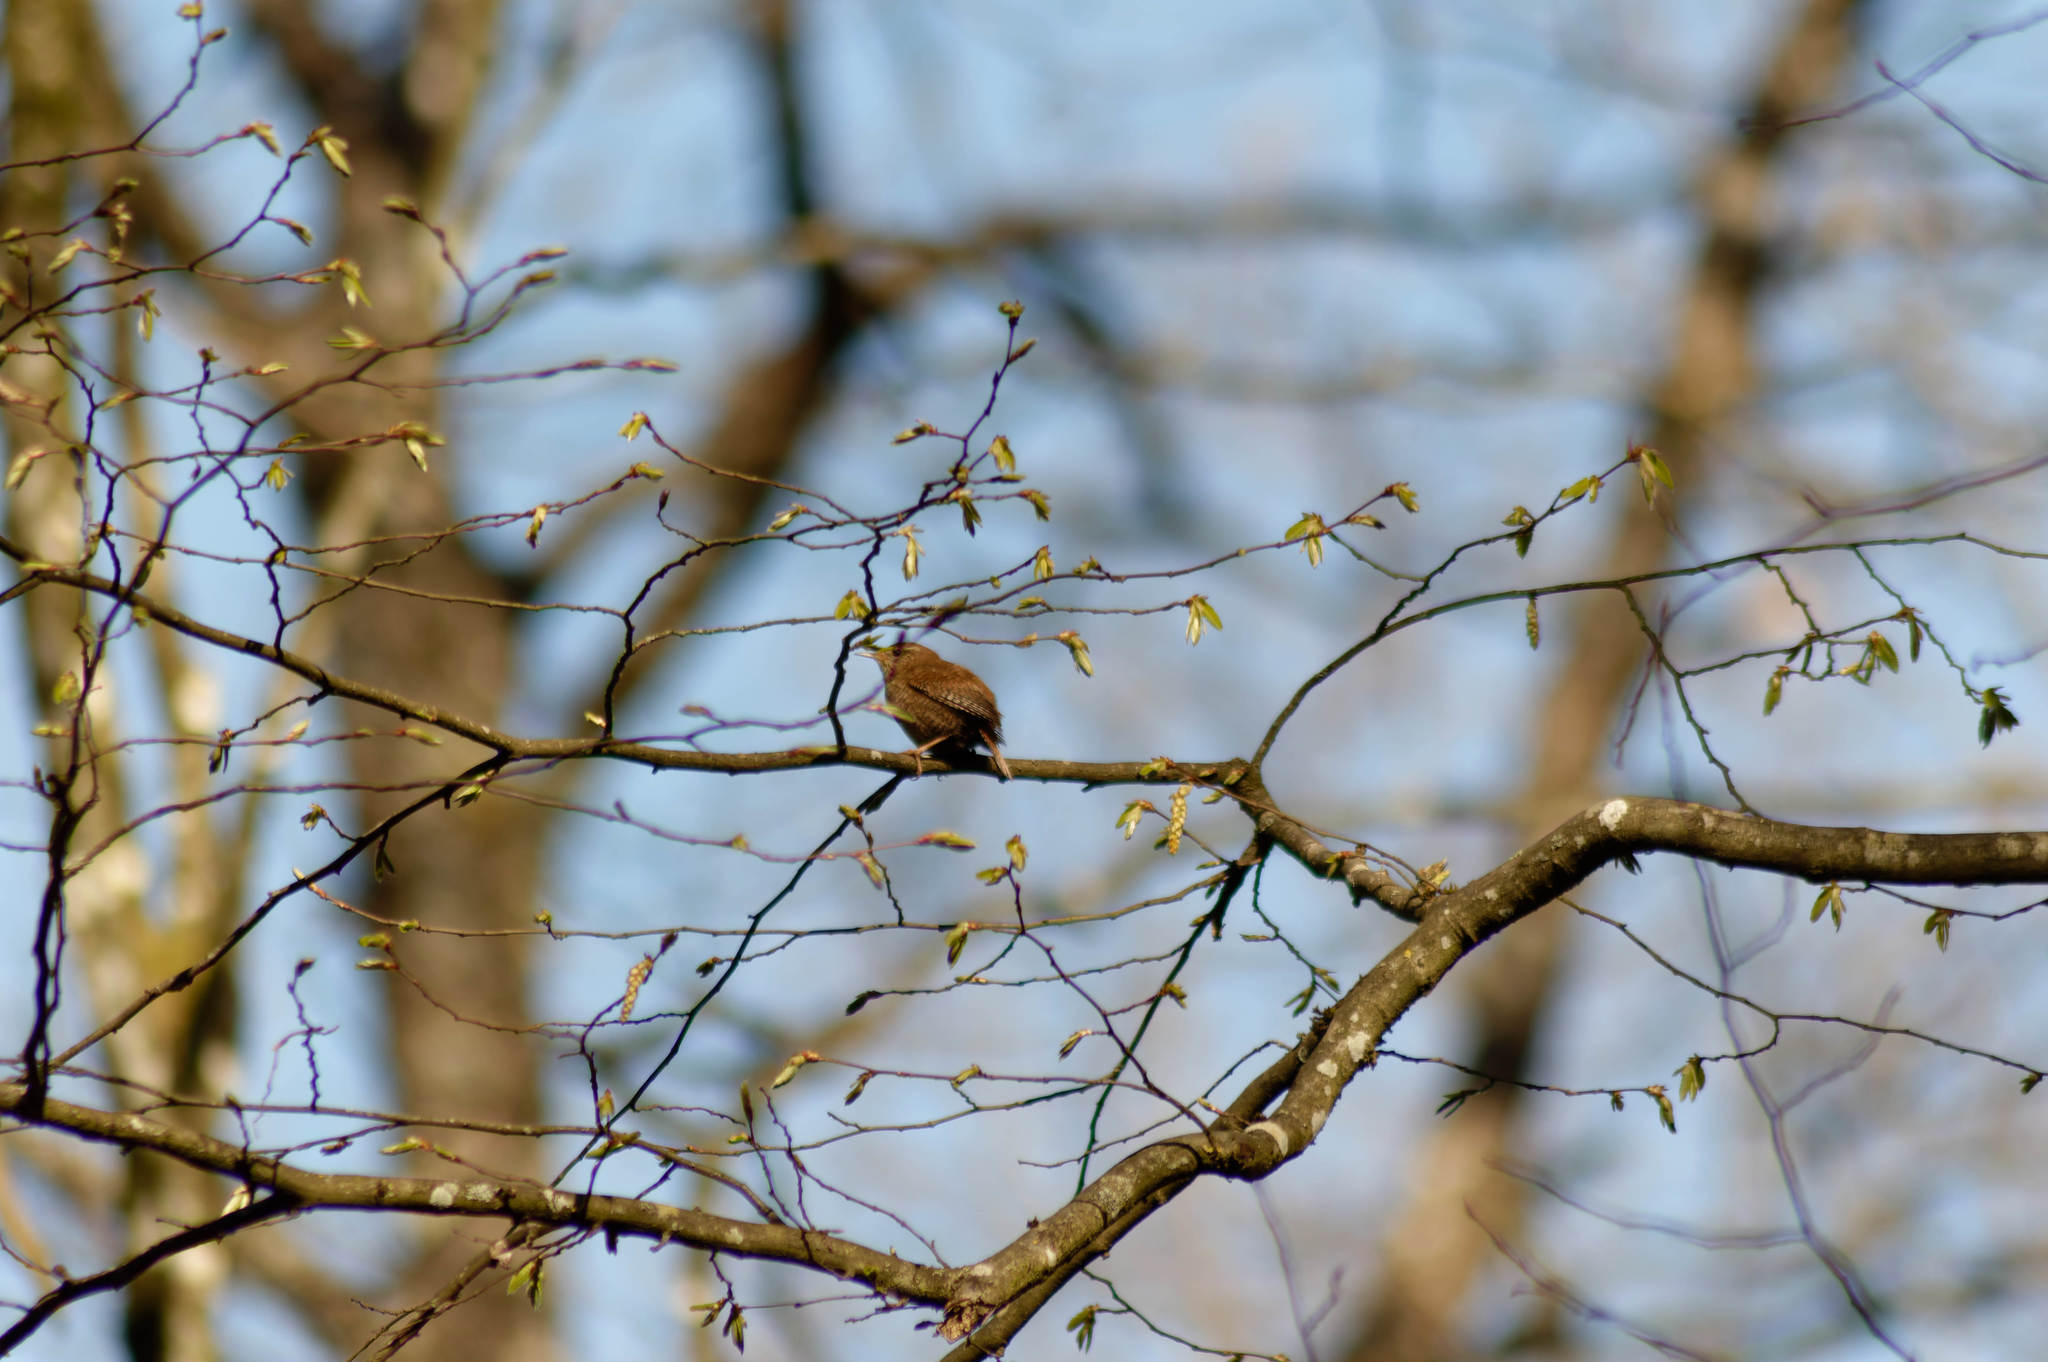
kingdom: Animalia
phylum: Chordata
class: Aves
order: Passeriformes
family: Troglodytidae
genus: Troglodytes
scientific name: Troglodytes troglodytes
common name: Eurasian wren
